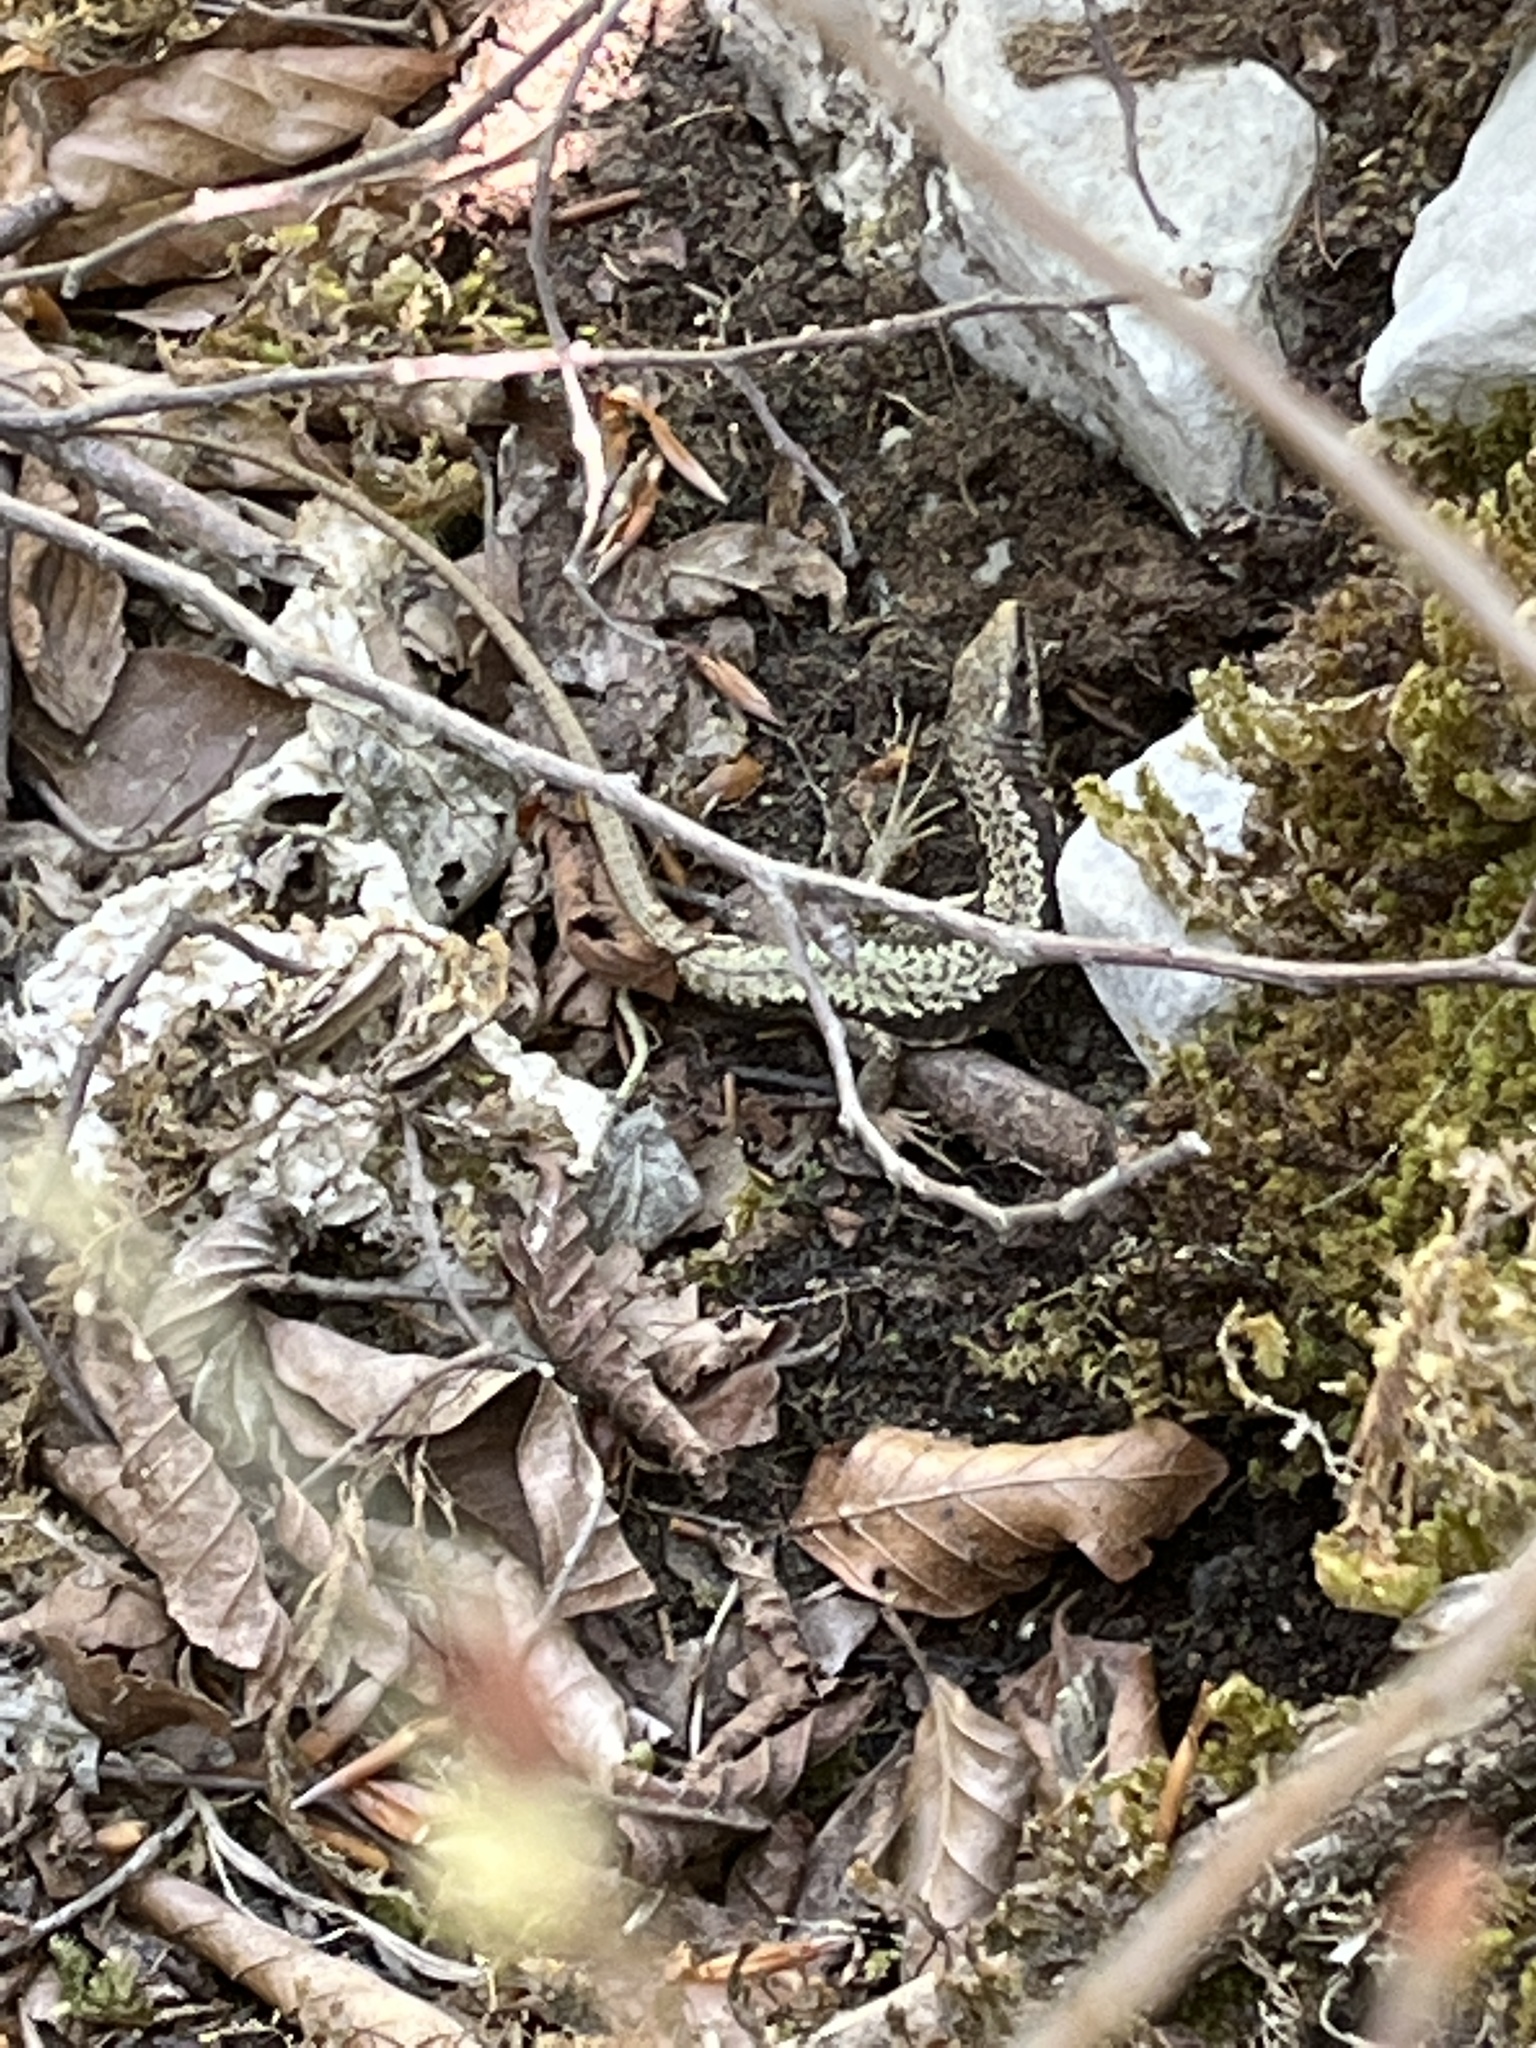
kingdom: Animalia
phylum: Chordata
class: Squamata
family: Lacertidae
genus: Podarcis
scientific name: Podarcis muralis
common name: Common wall lizard
